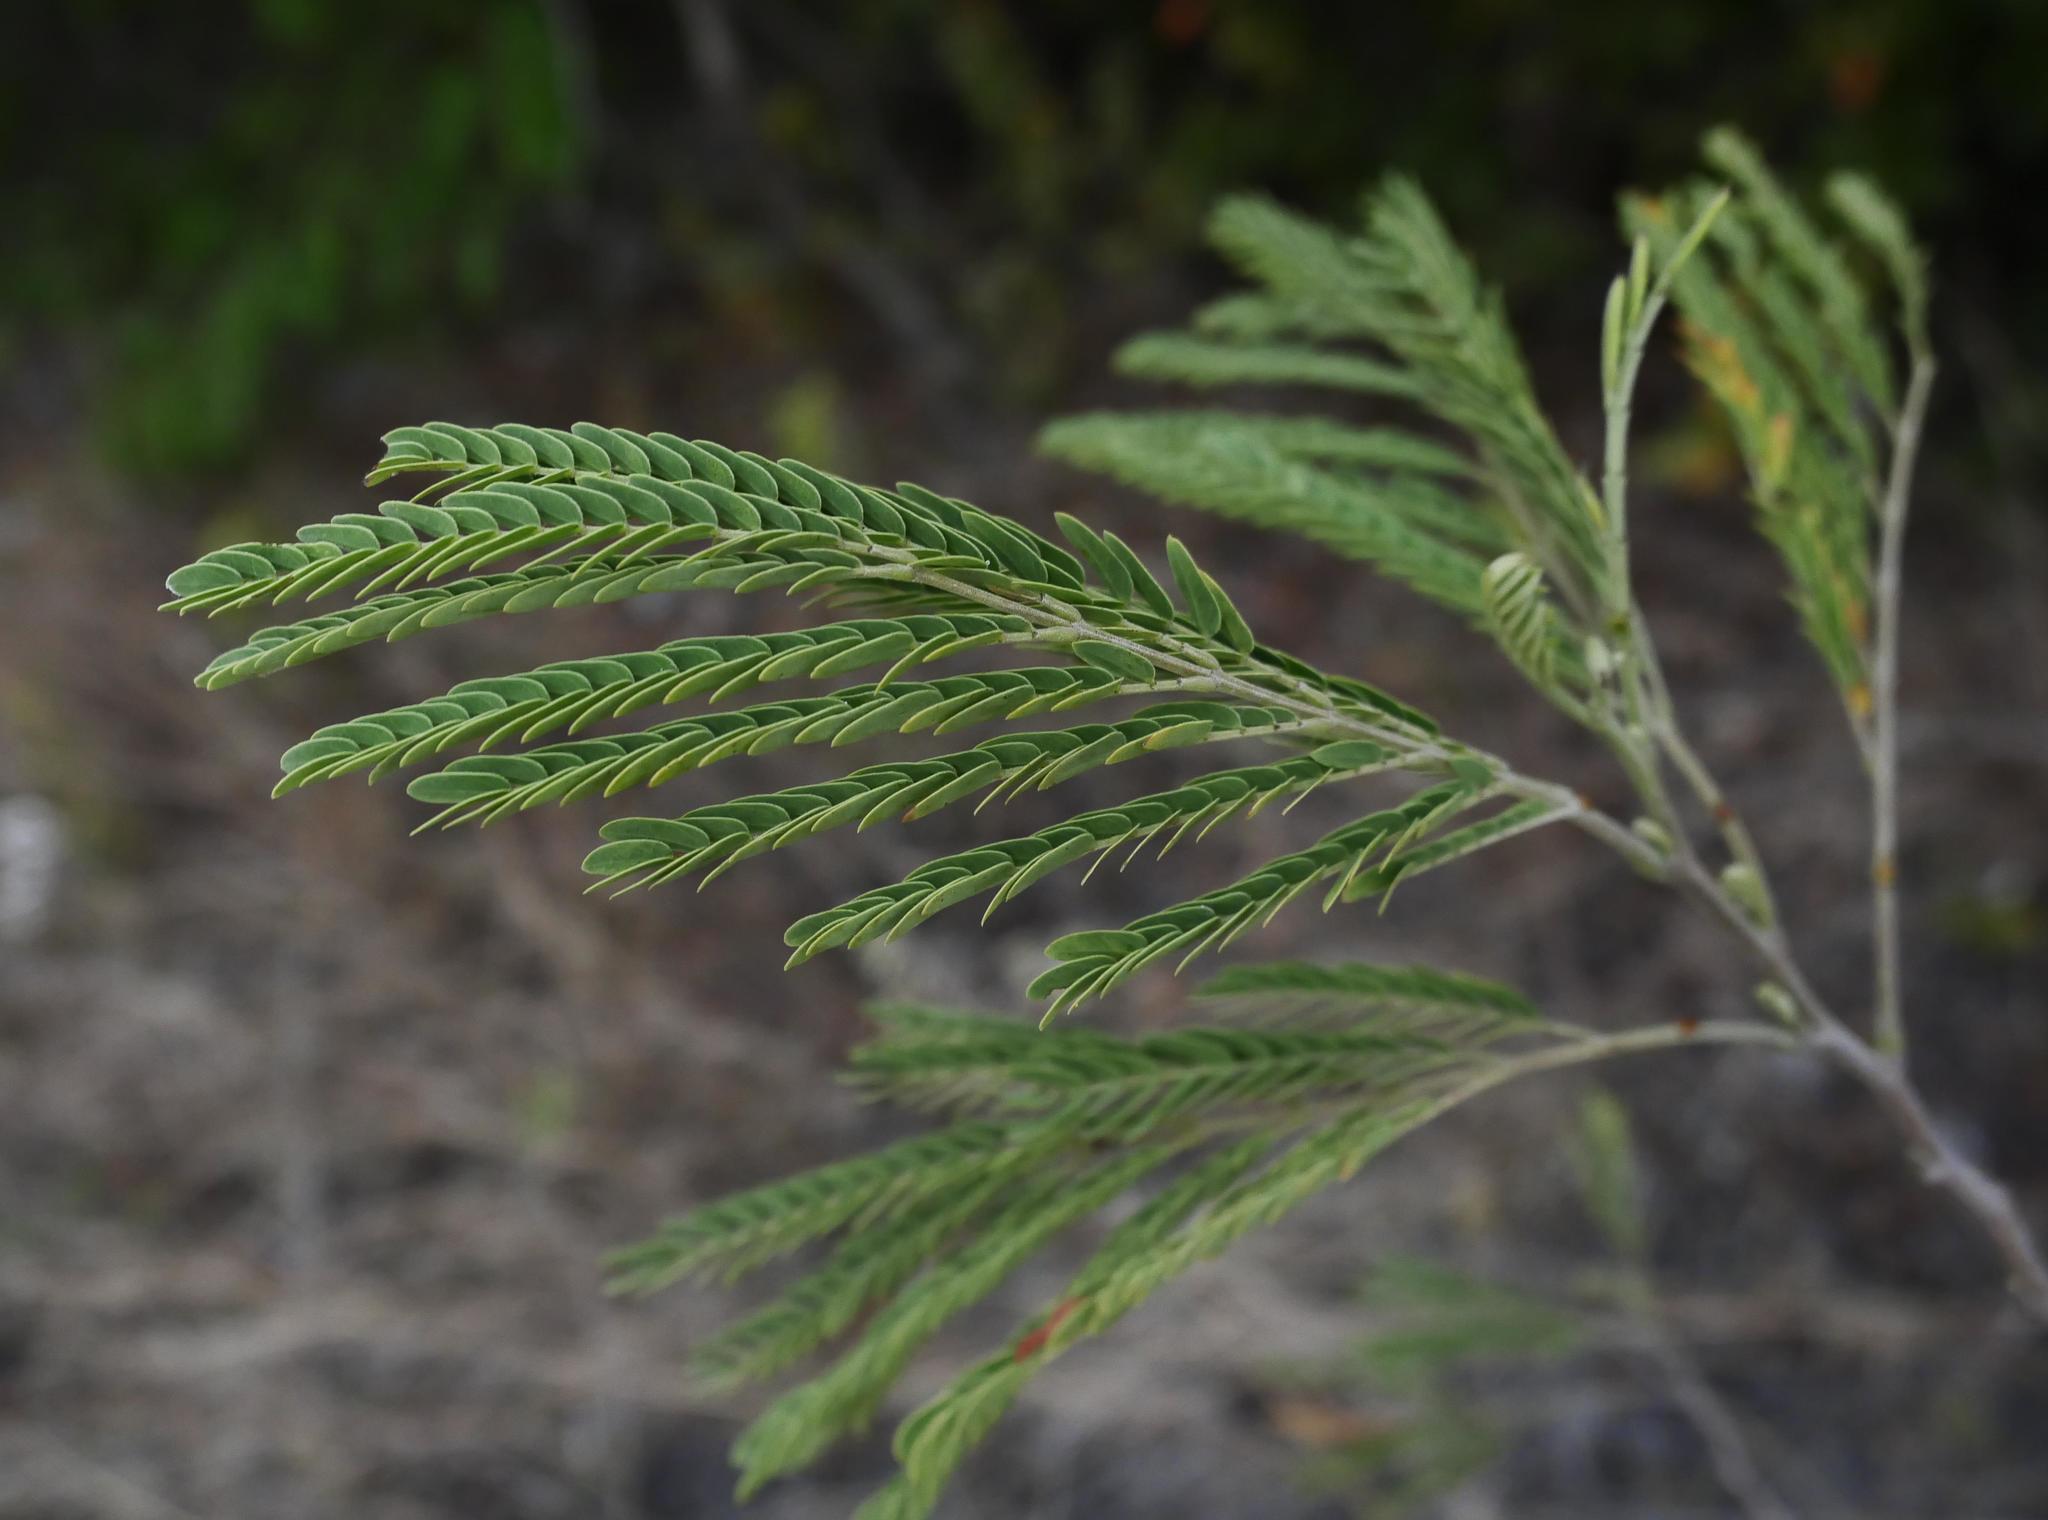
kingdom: Plantae
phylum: Tracheophyta
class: Magnoliopsida
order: Fabales
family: Fabaceae
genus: Leucaena
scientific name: Leucaena leucocephala
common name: White leadtree
